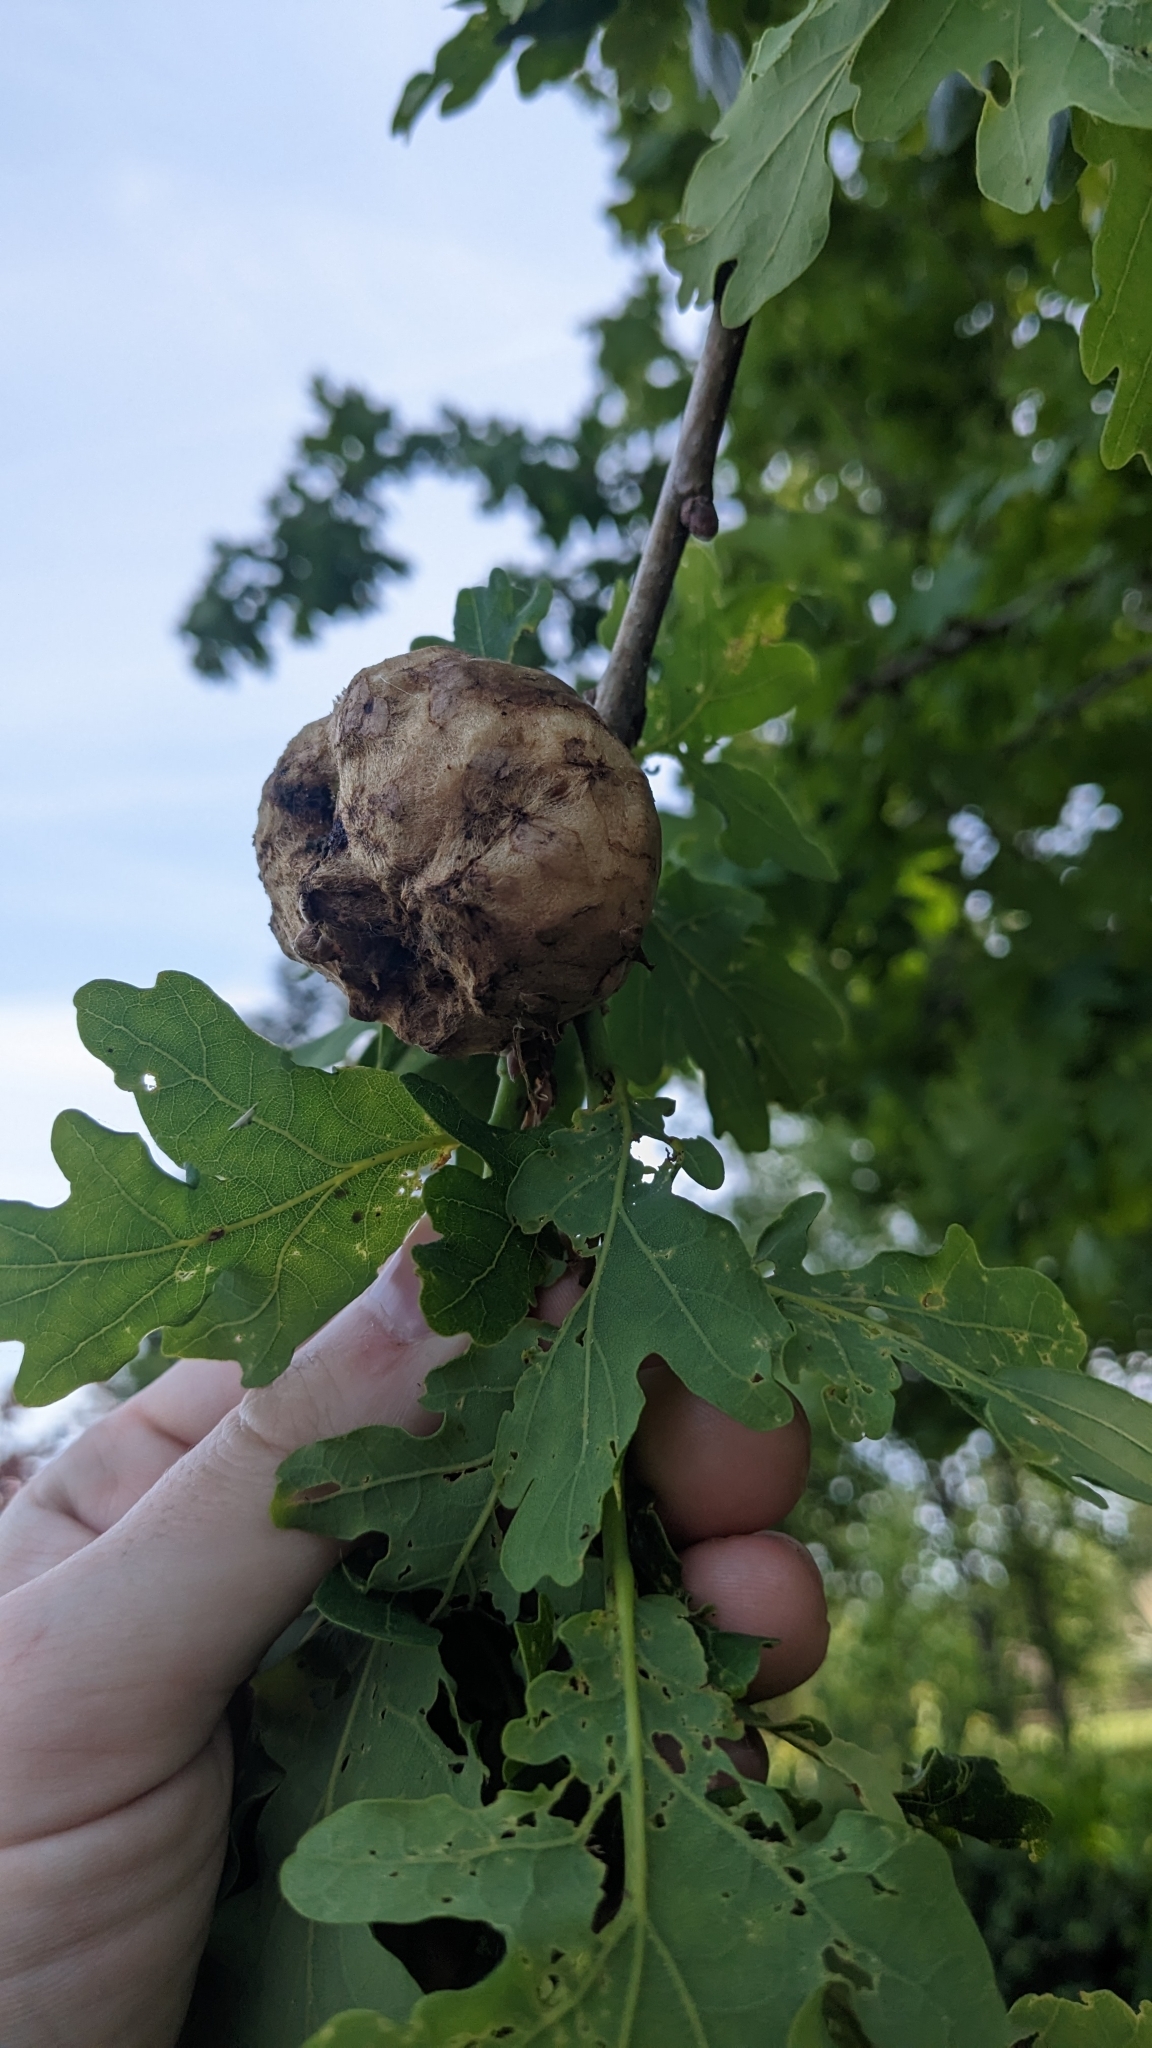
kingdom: Animalia
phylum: Arthropoda
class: Insecta
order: Hymenoptera
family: Cynipidae
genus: Biorhiza
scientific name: Biorhiza pallida
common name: Oak apple
